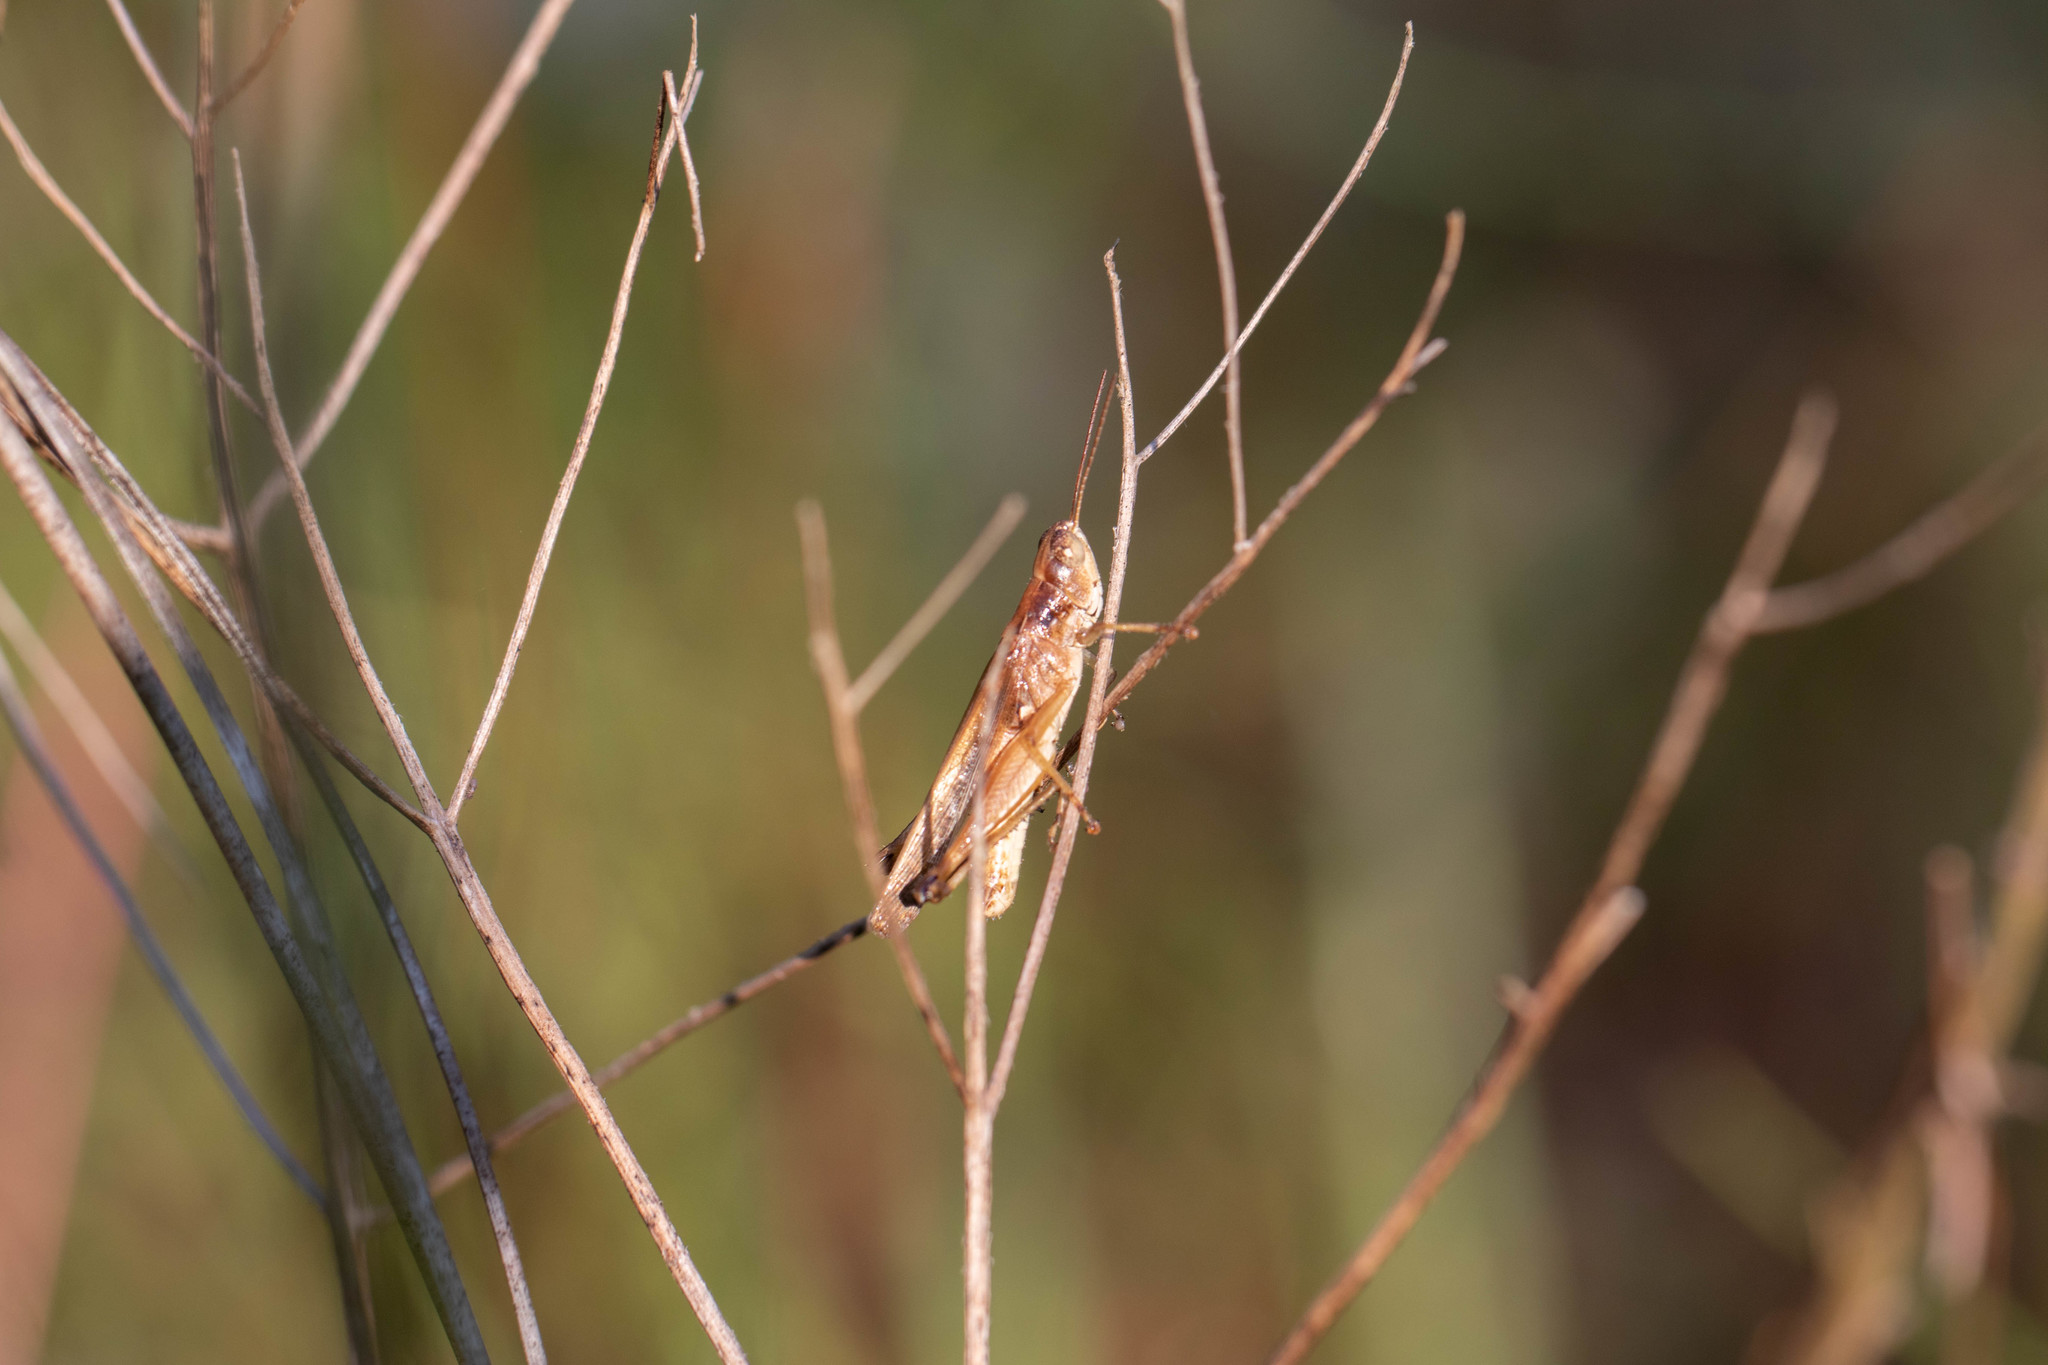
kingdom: Animalia
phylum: Arthropoda
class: Insecta
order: Orthoptera
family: Acrididae
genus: Orphulella
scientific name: Orphulella pelidna
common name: Spotted-wing grasshopper
